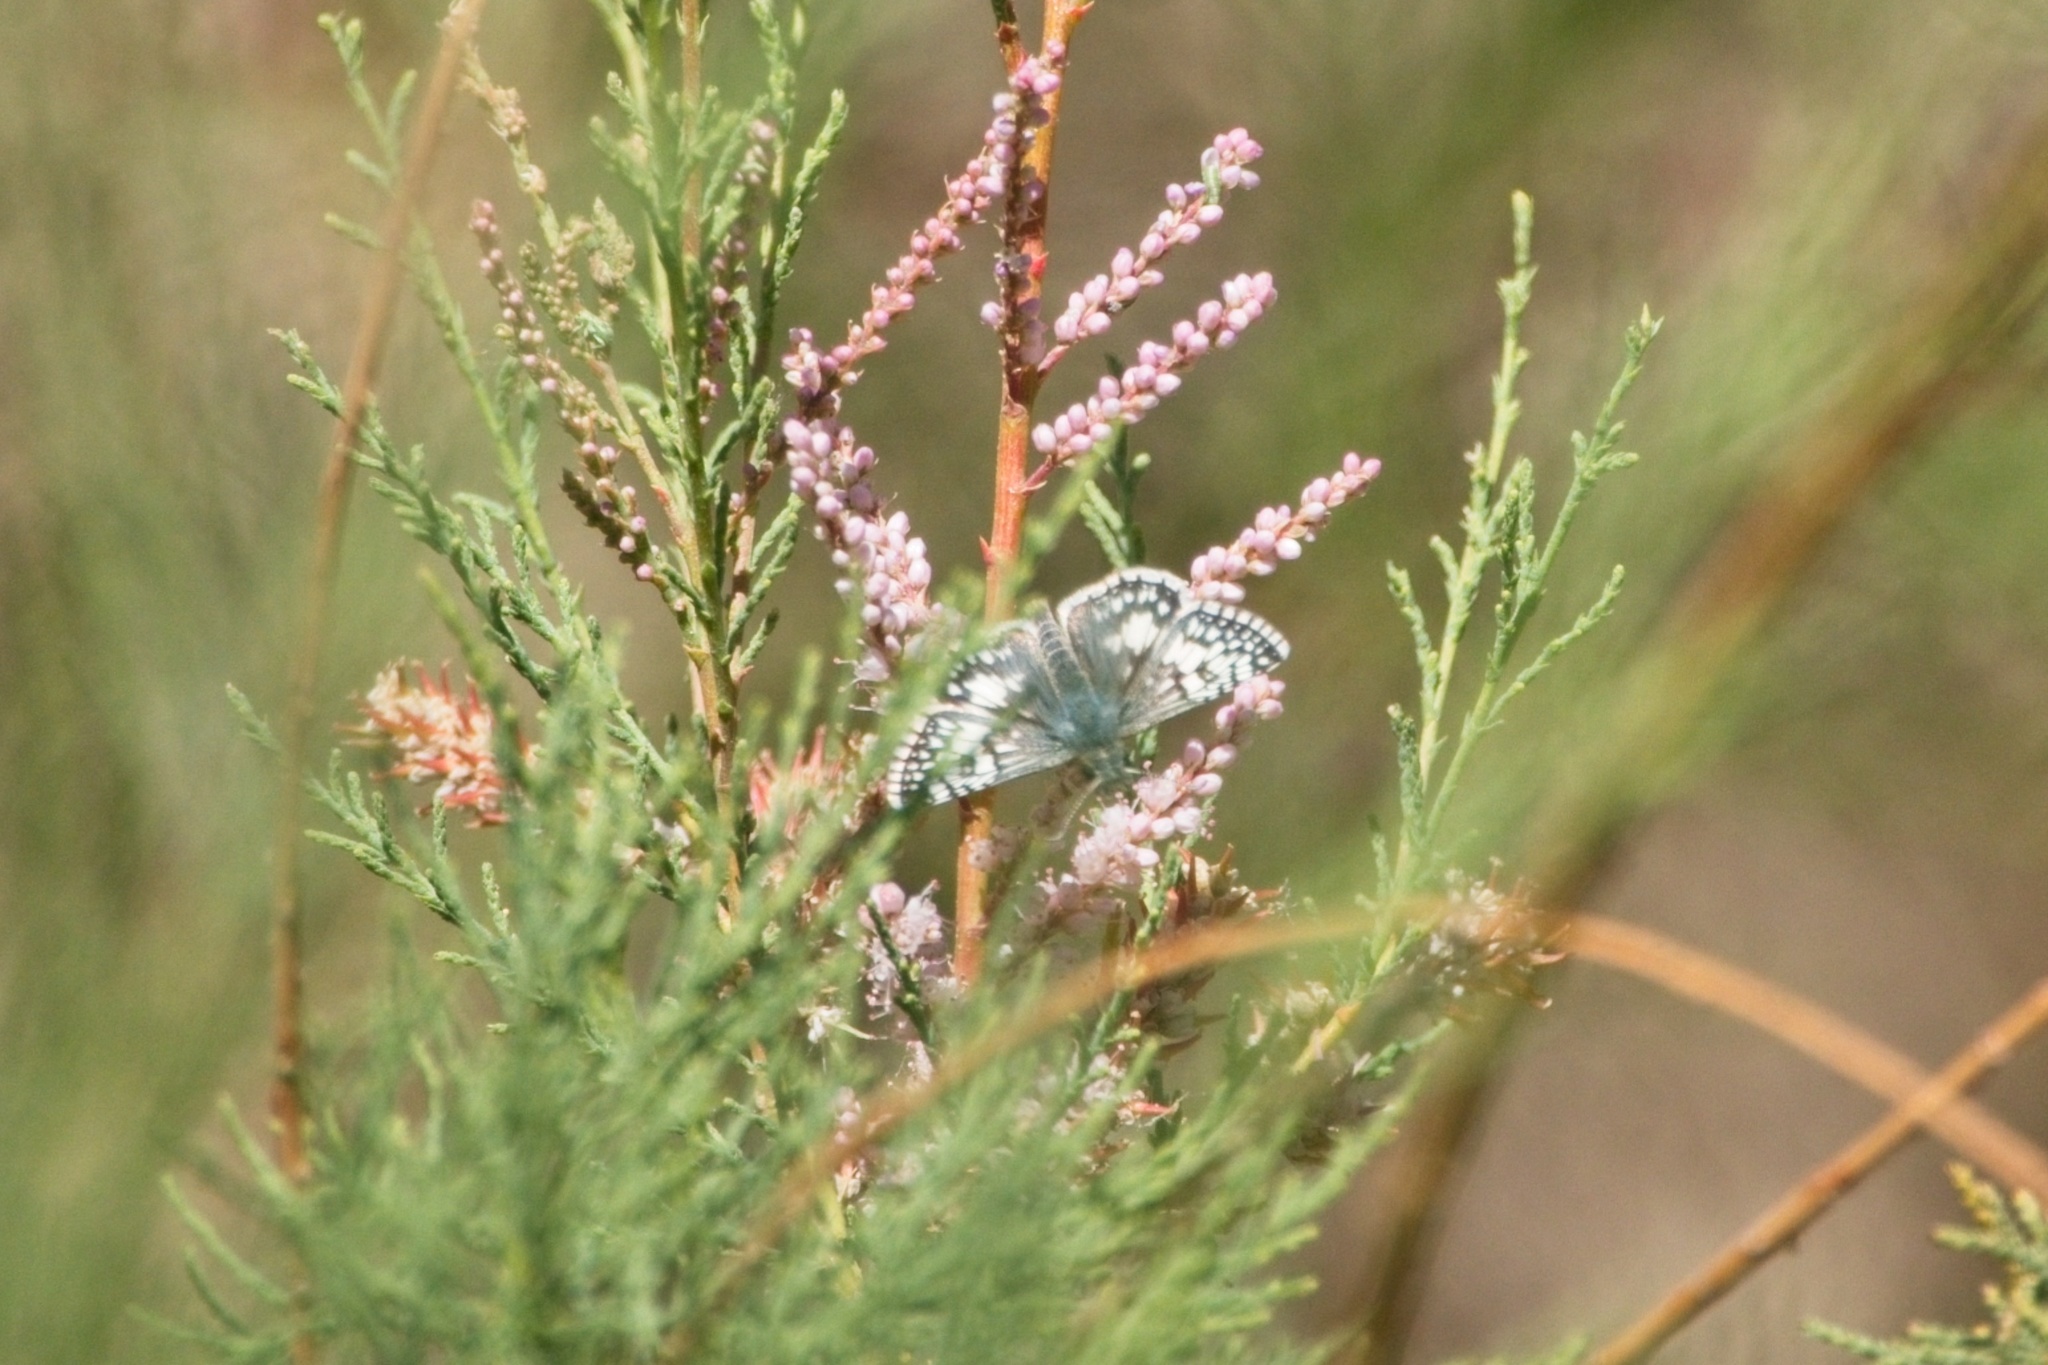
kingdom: Animalia
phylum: Arthropoda
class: Insecta
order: Lepidoptera
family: Hesperiidae
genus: Burnsius
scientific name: Burnsius albezens
